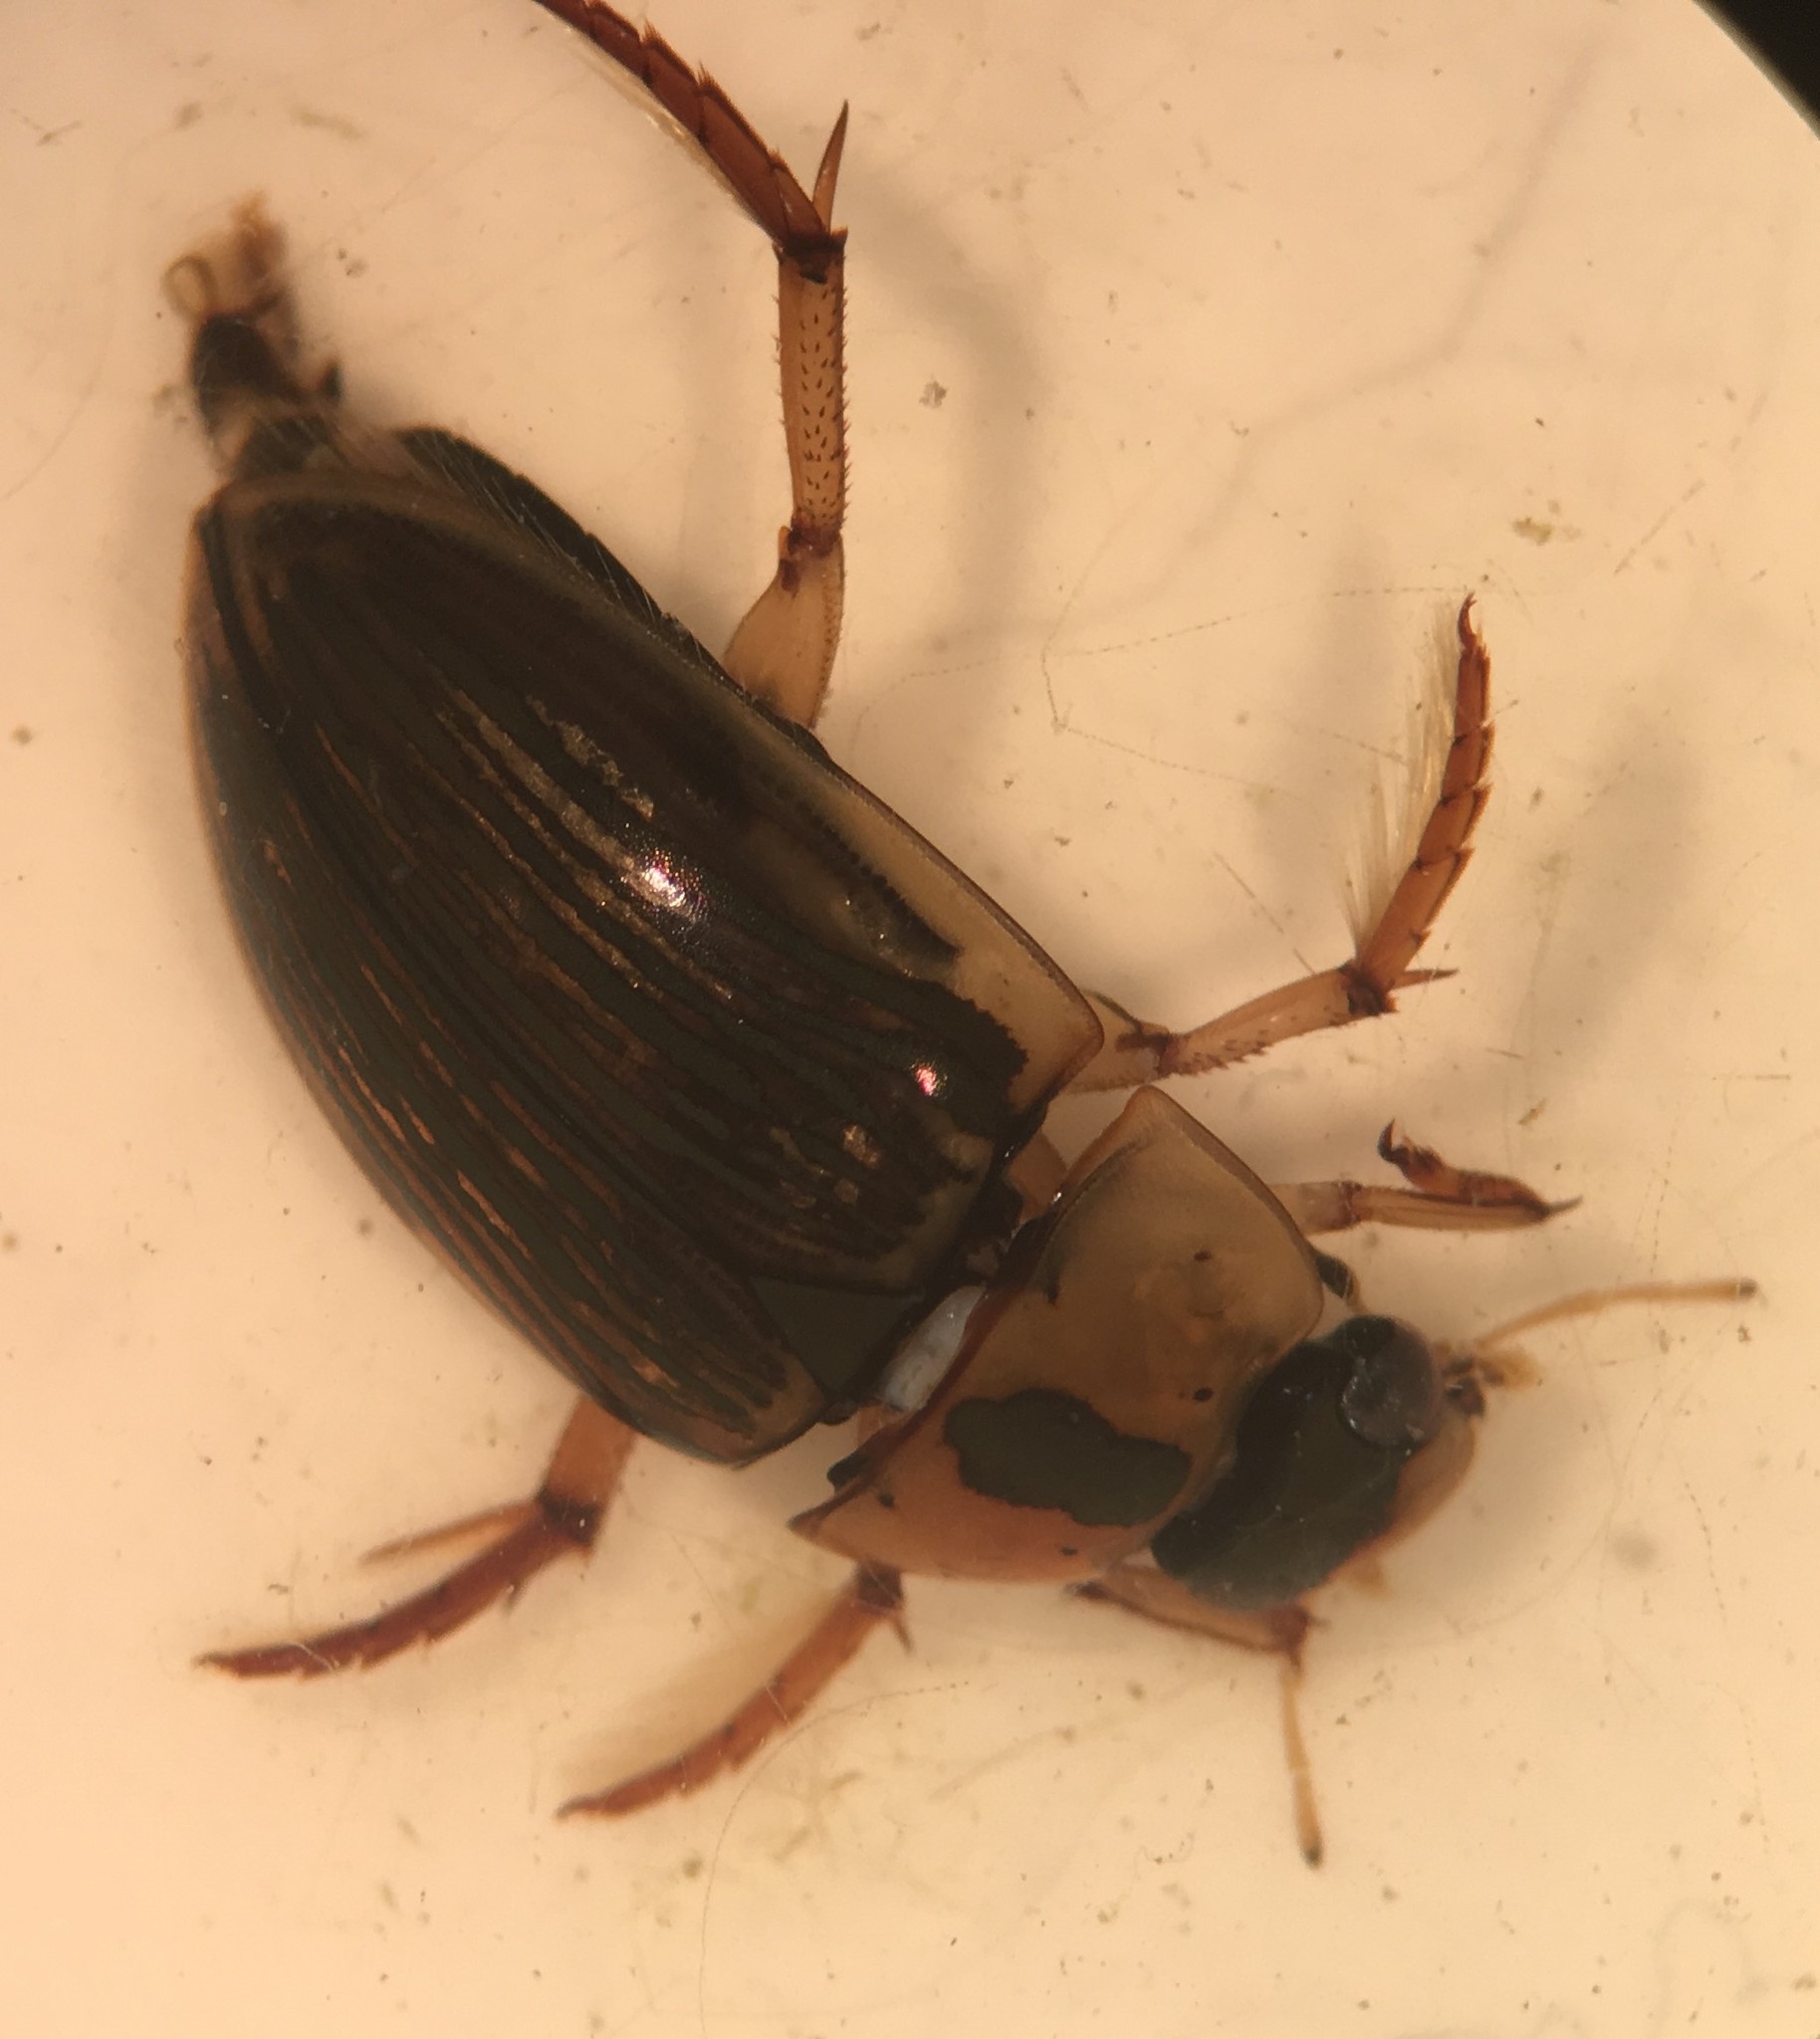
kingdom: Animalia
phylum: Arthropoda
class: Insecta
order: Coleoptera
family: Hydrophilidae
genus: Tropisternus
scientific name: Tropisternus collaris
